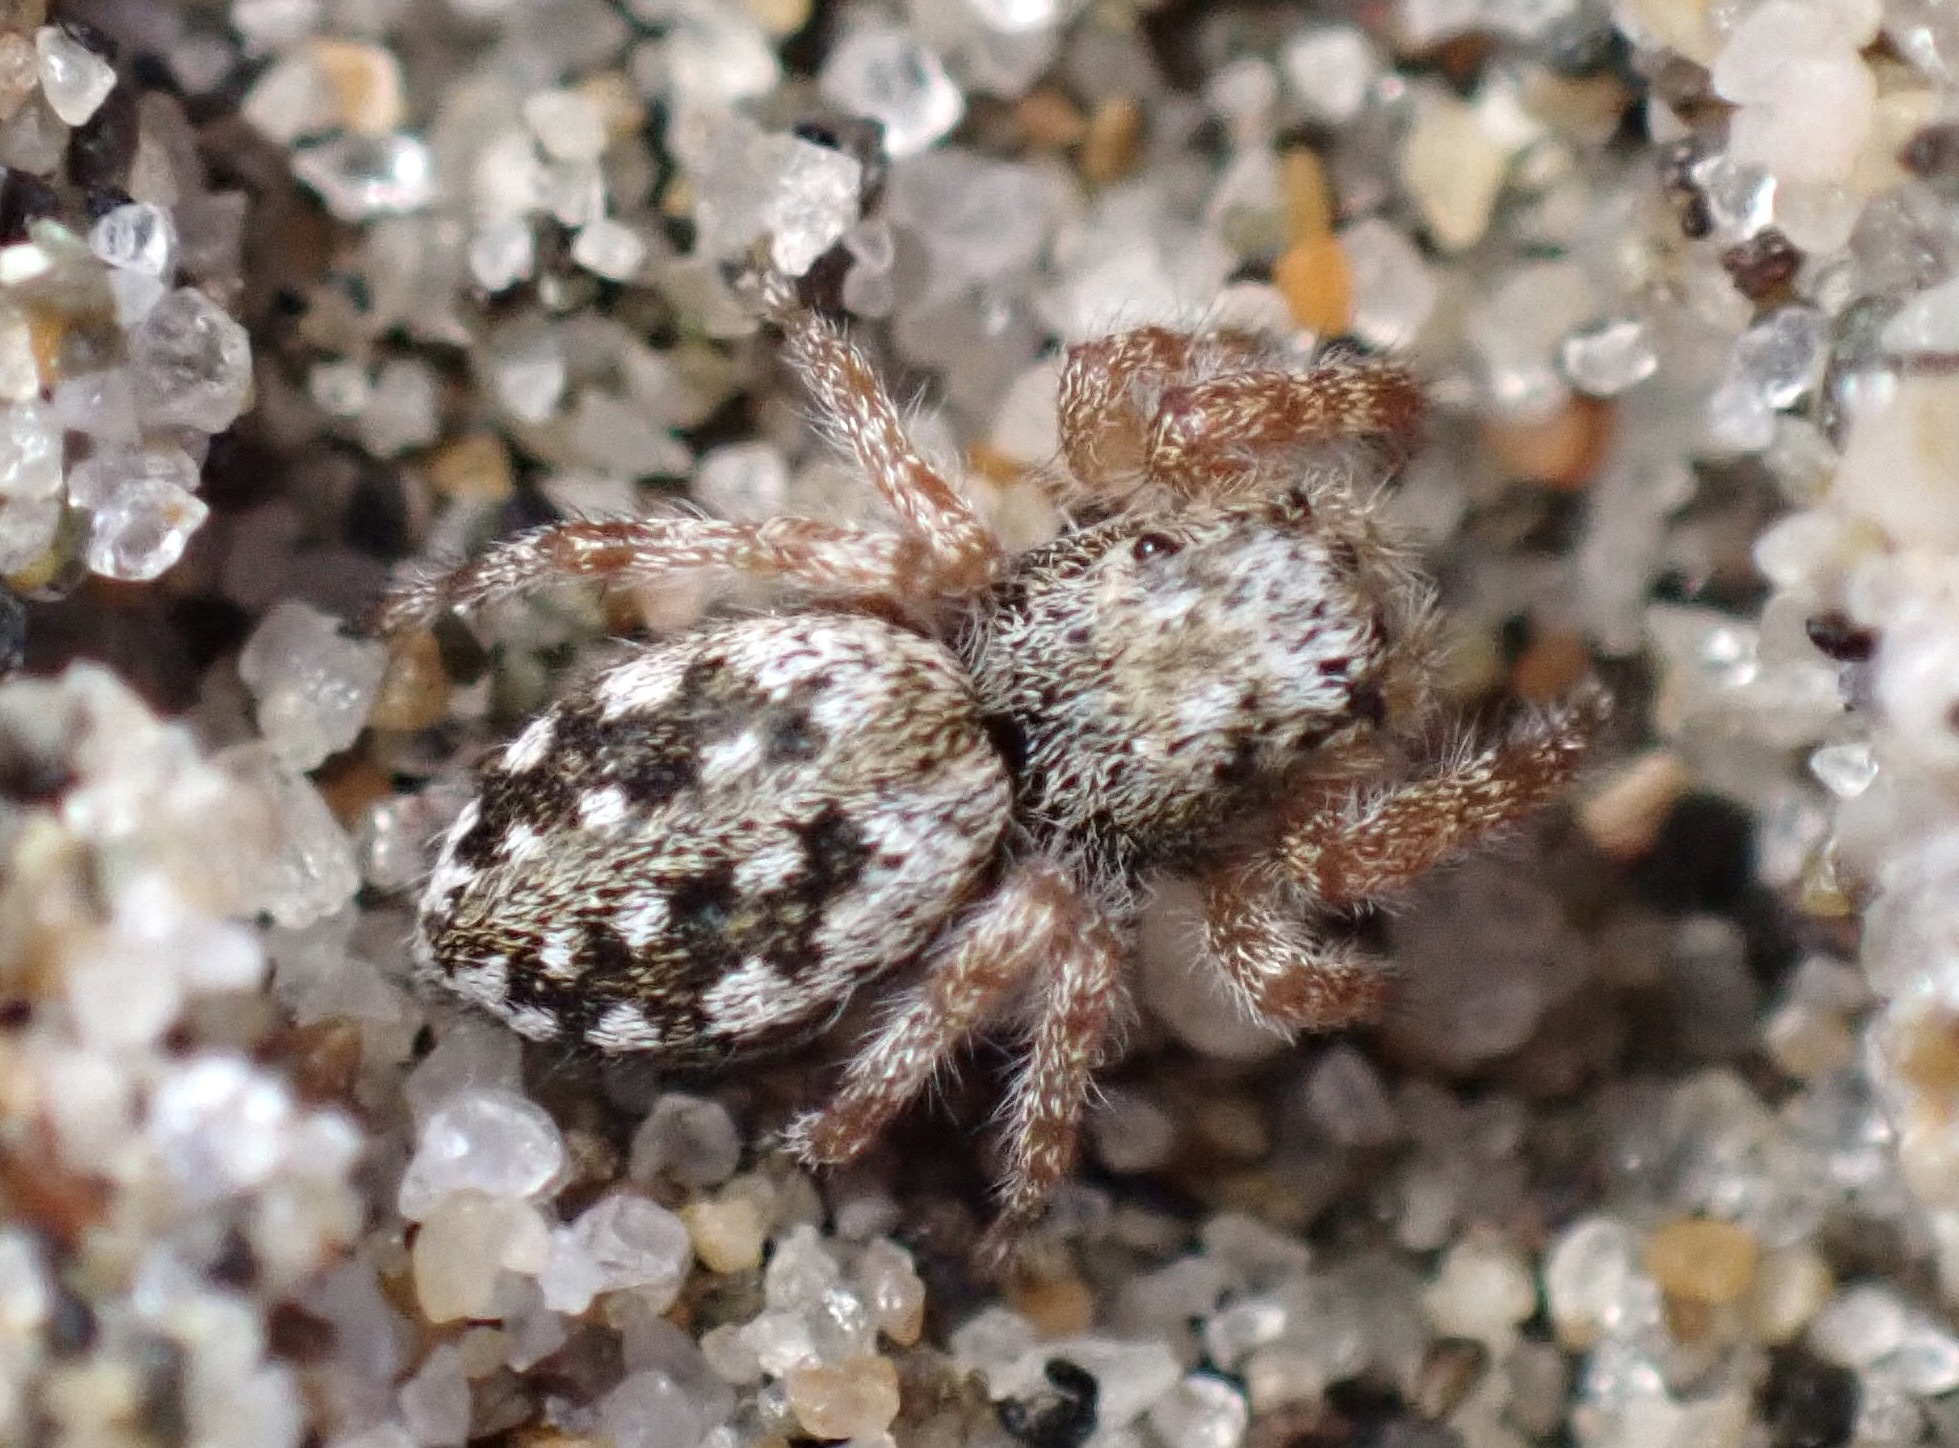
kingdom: Animalia
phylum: Arthropoda
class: Arachnida
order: Araneae
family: Salticidae
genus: Terralonus
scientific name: Terralonus californicus
